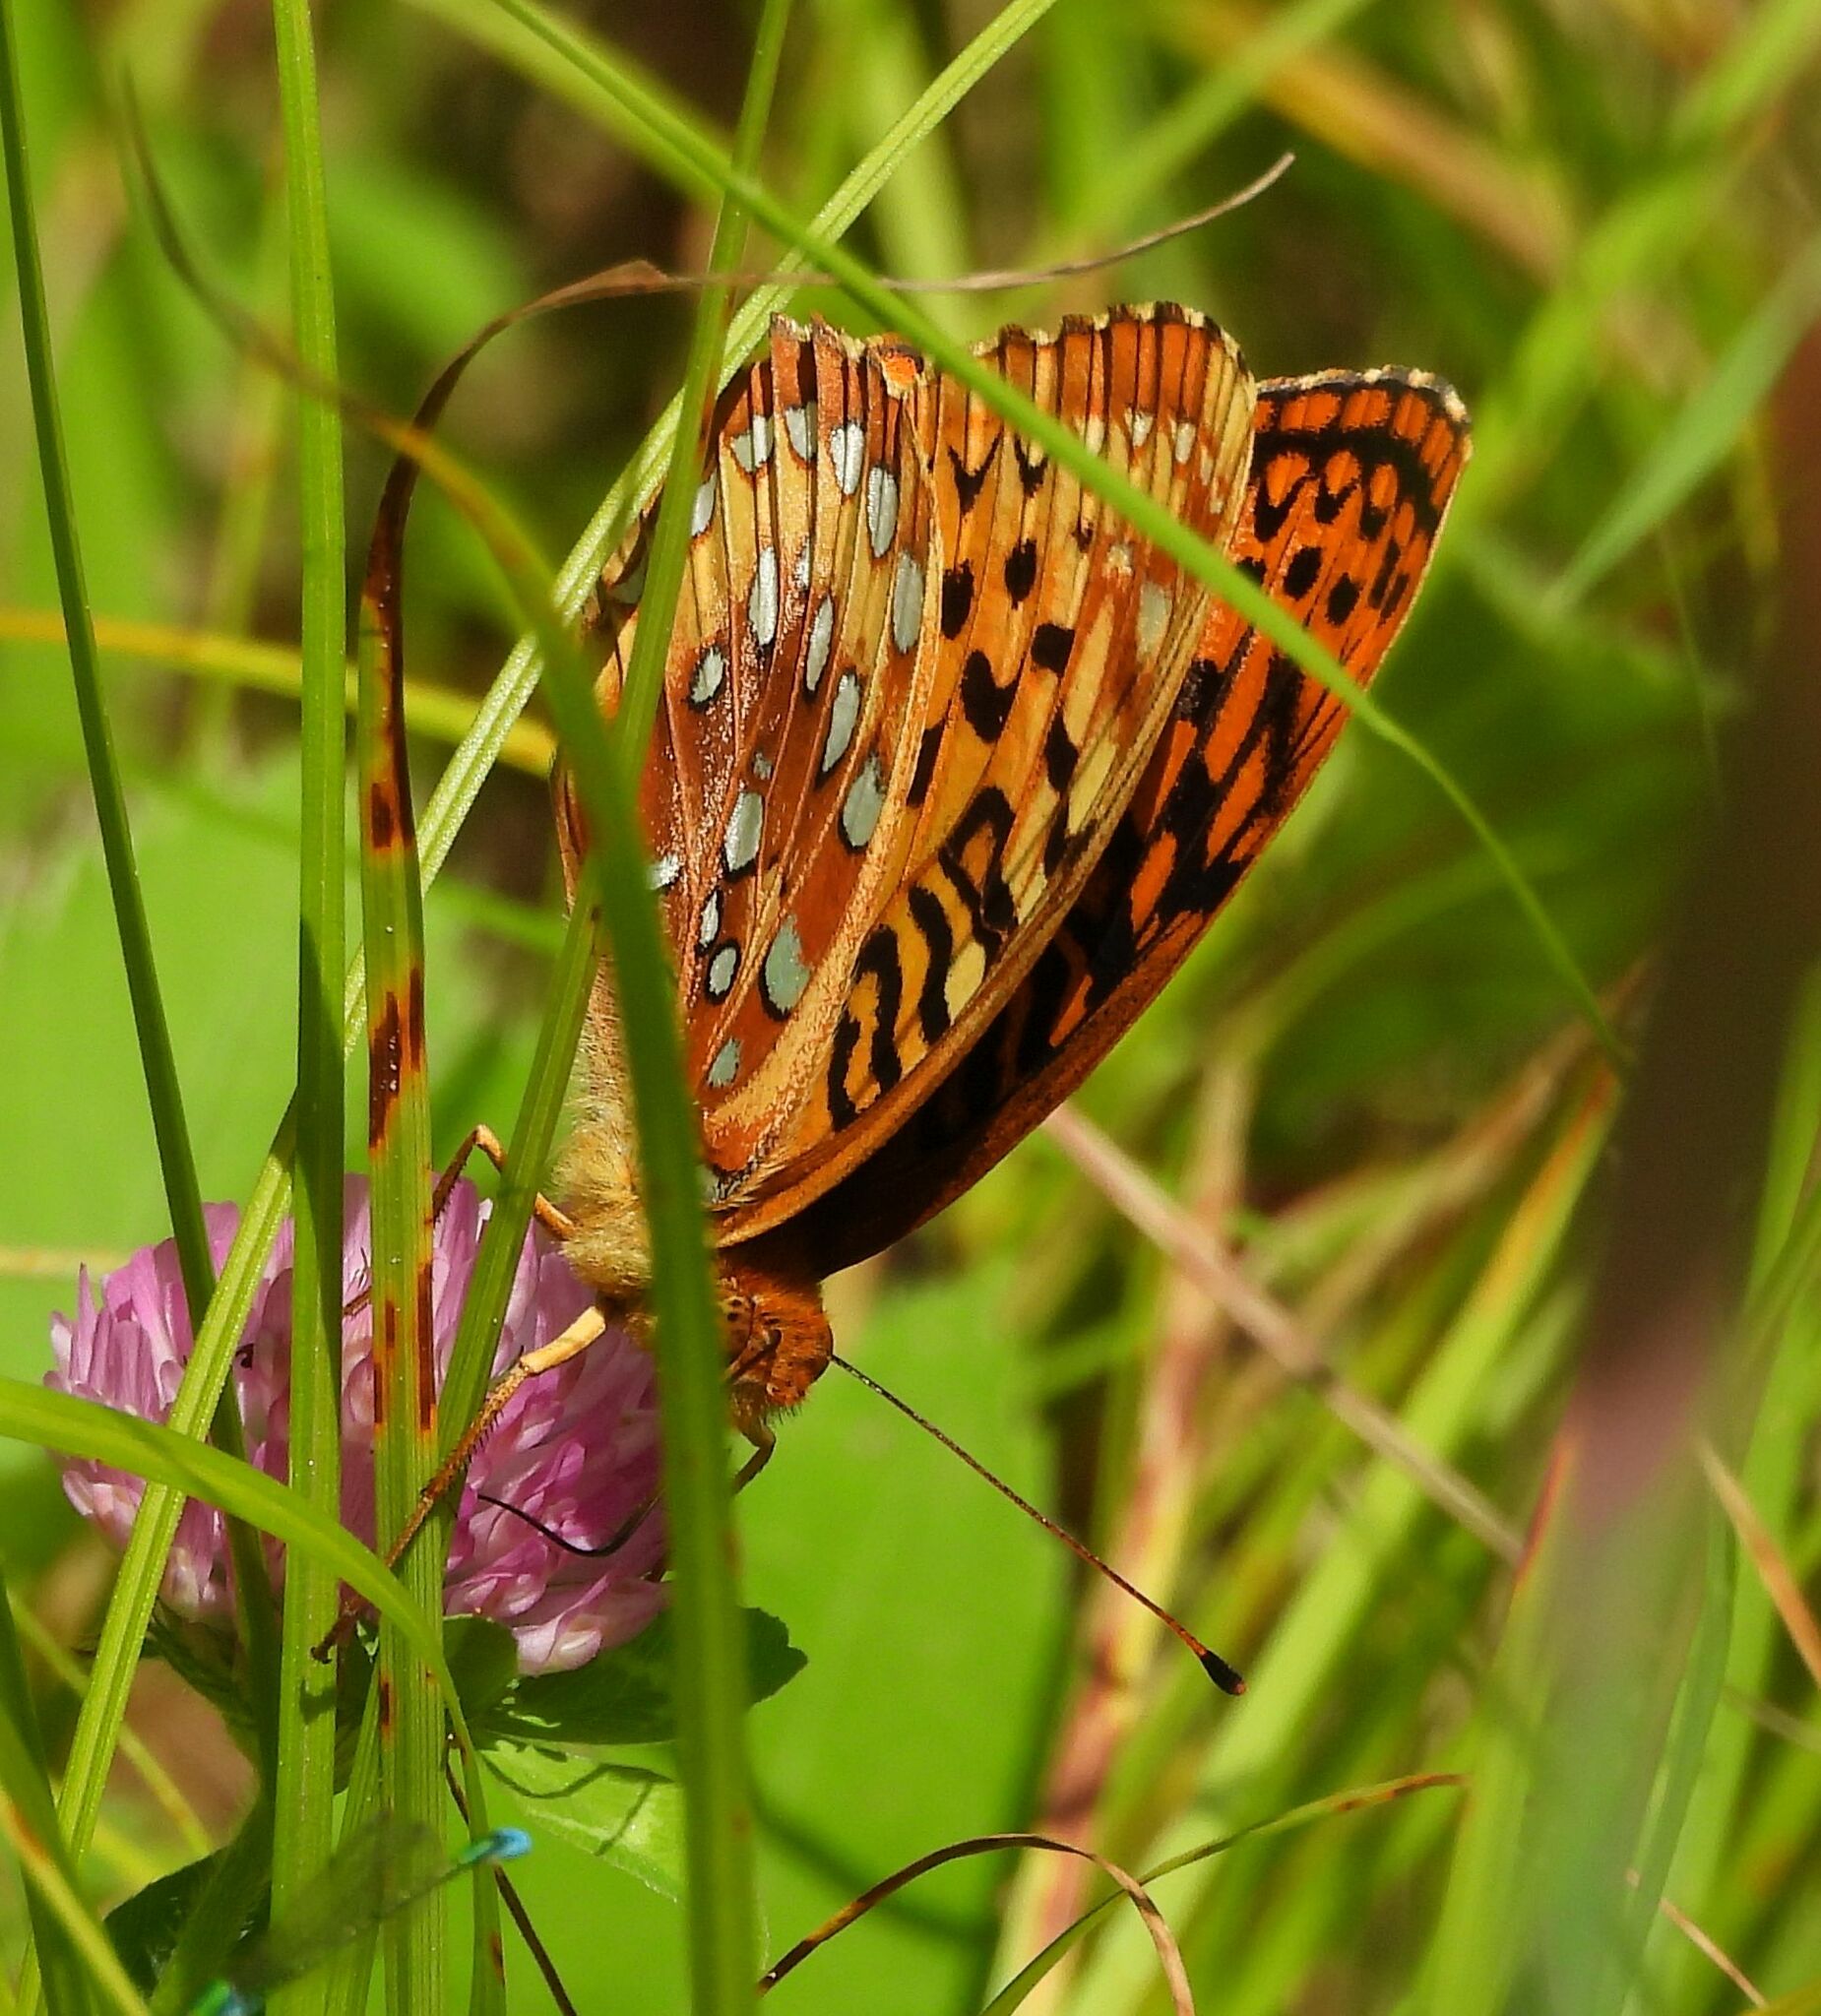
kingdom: Animalia
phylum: Arthropoda
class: Insecta
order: Lepidoptera
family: Nymphalidae
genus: Speyeria
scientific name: Speyeria cybele
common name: Great spangled fritillary
